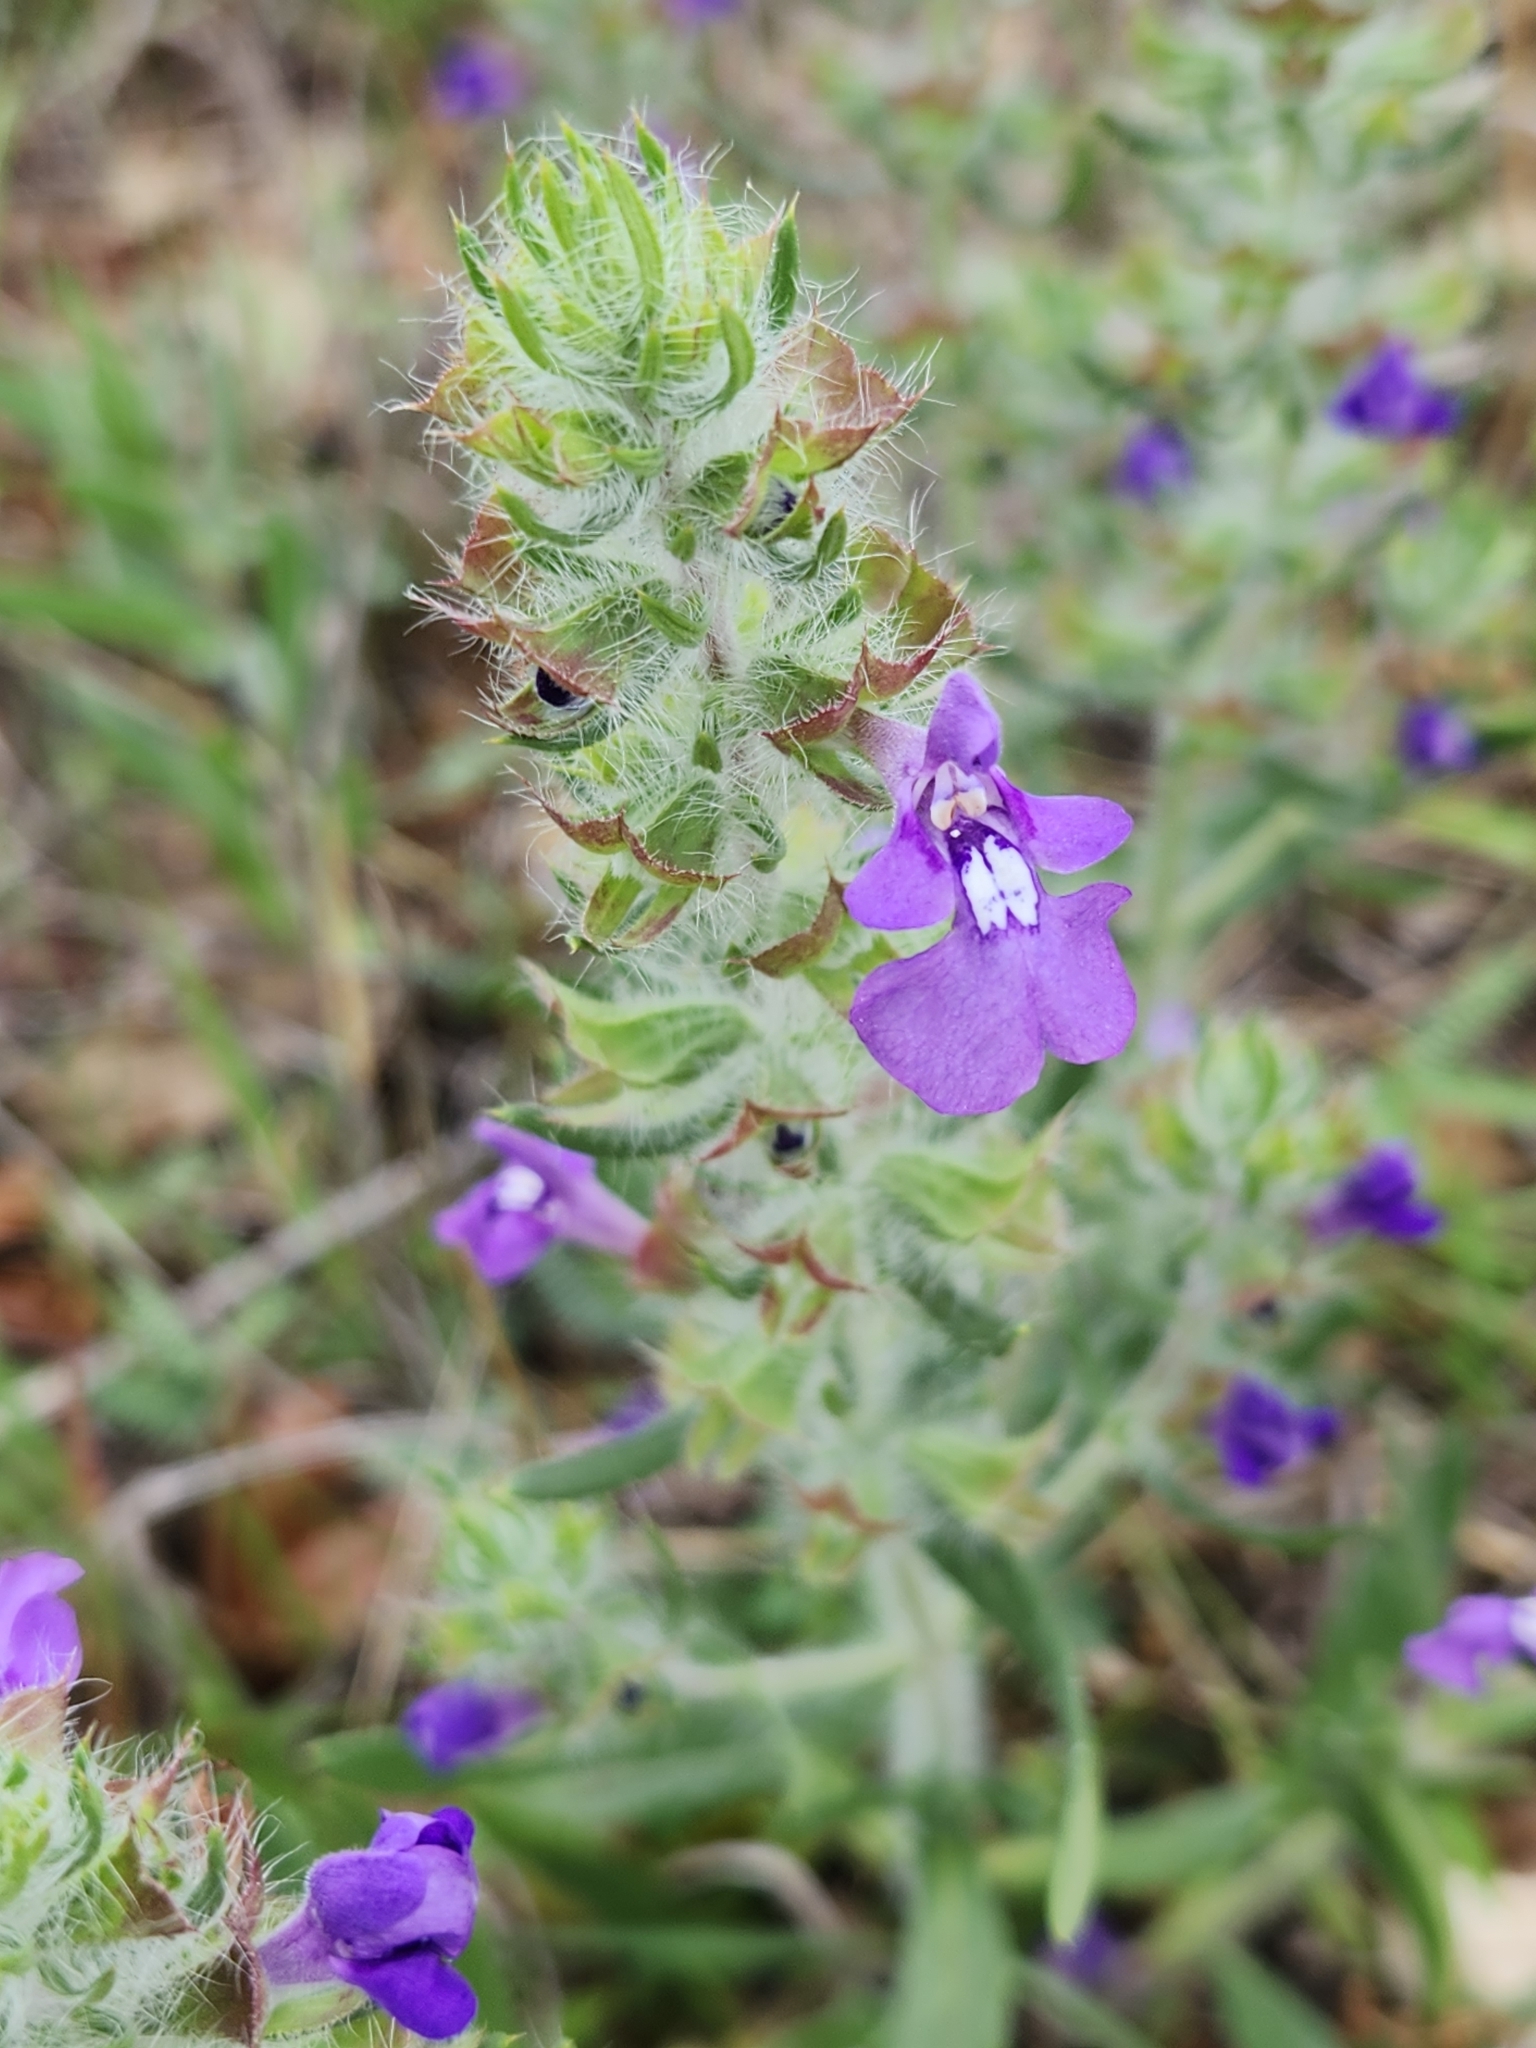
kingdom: Plantae
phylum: Tracheophyta
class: Magnoliopsida
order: Lamiales
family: Lamiaceae
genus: Salvia
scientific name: Salvia texana
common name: Texas sage
